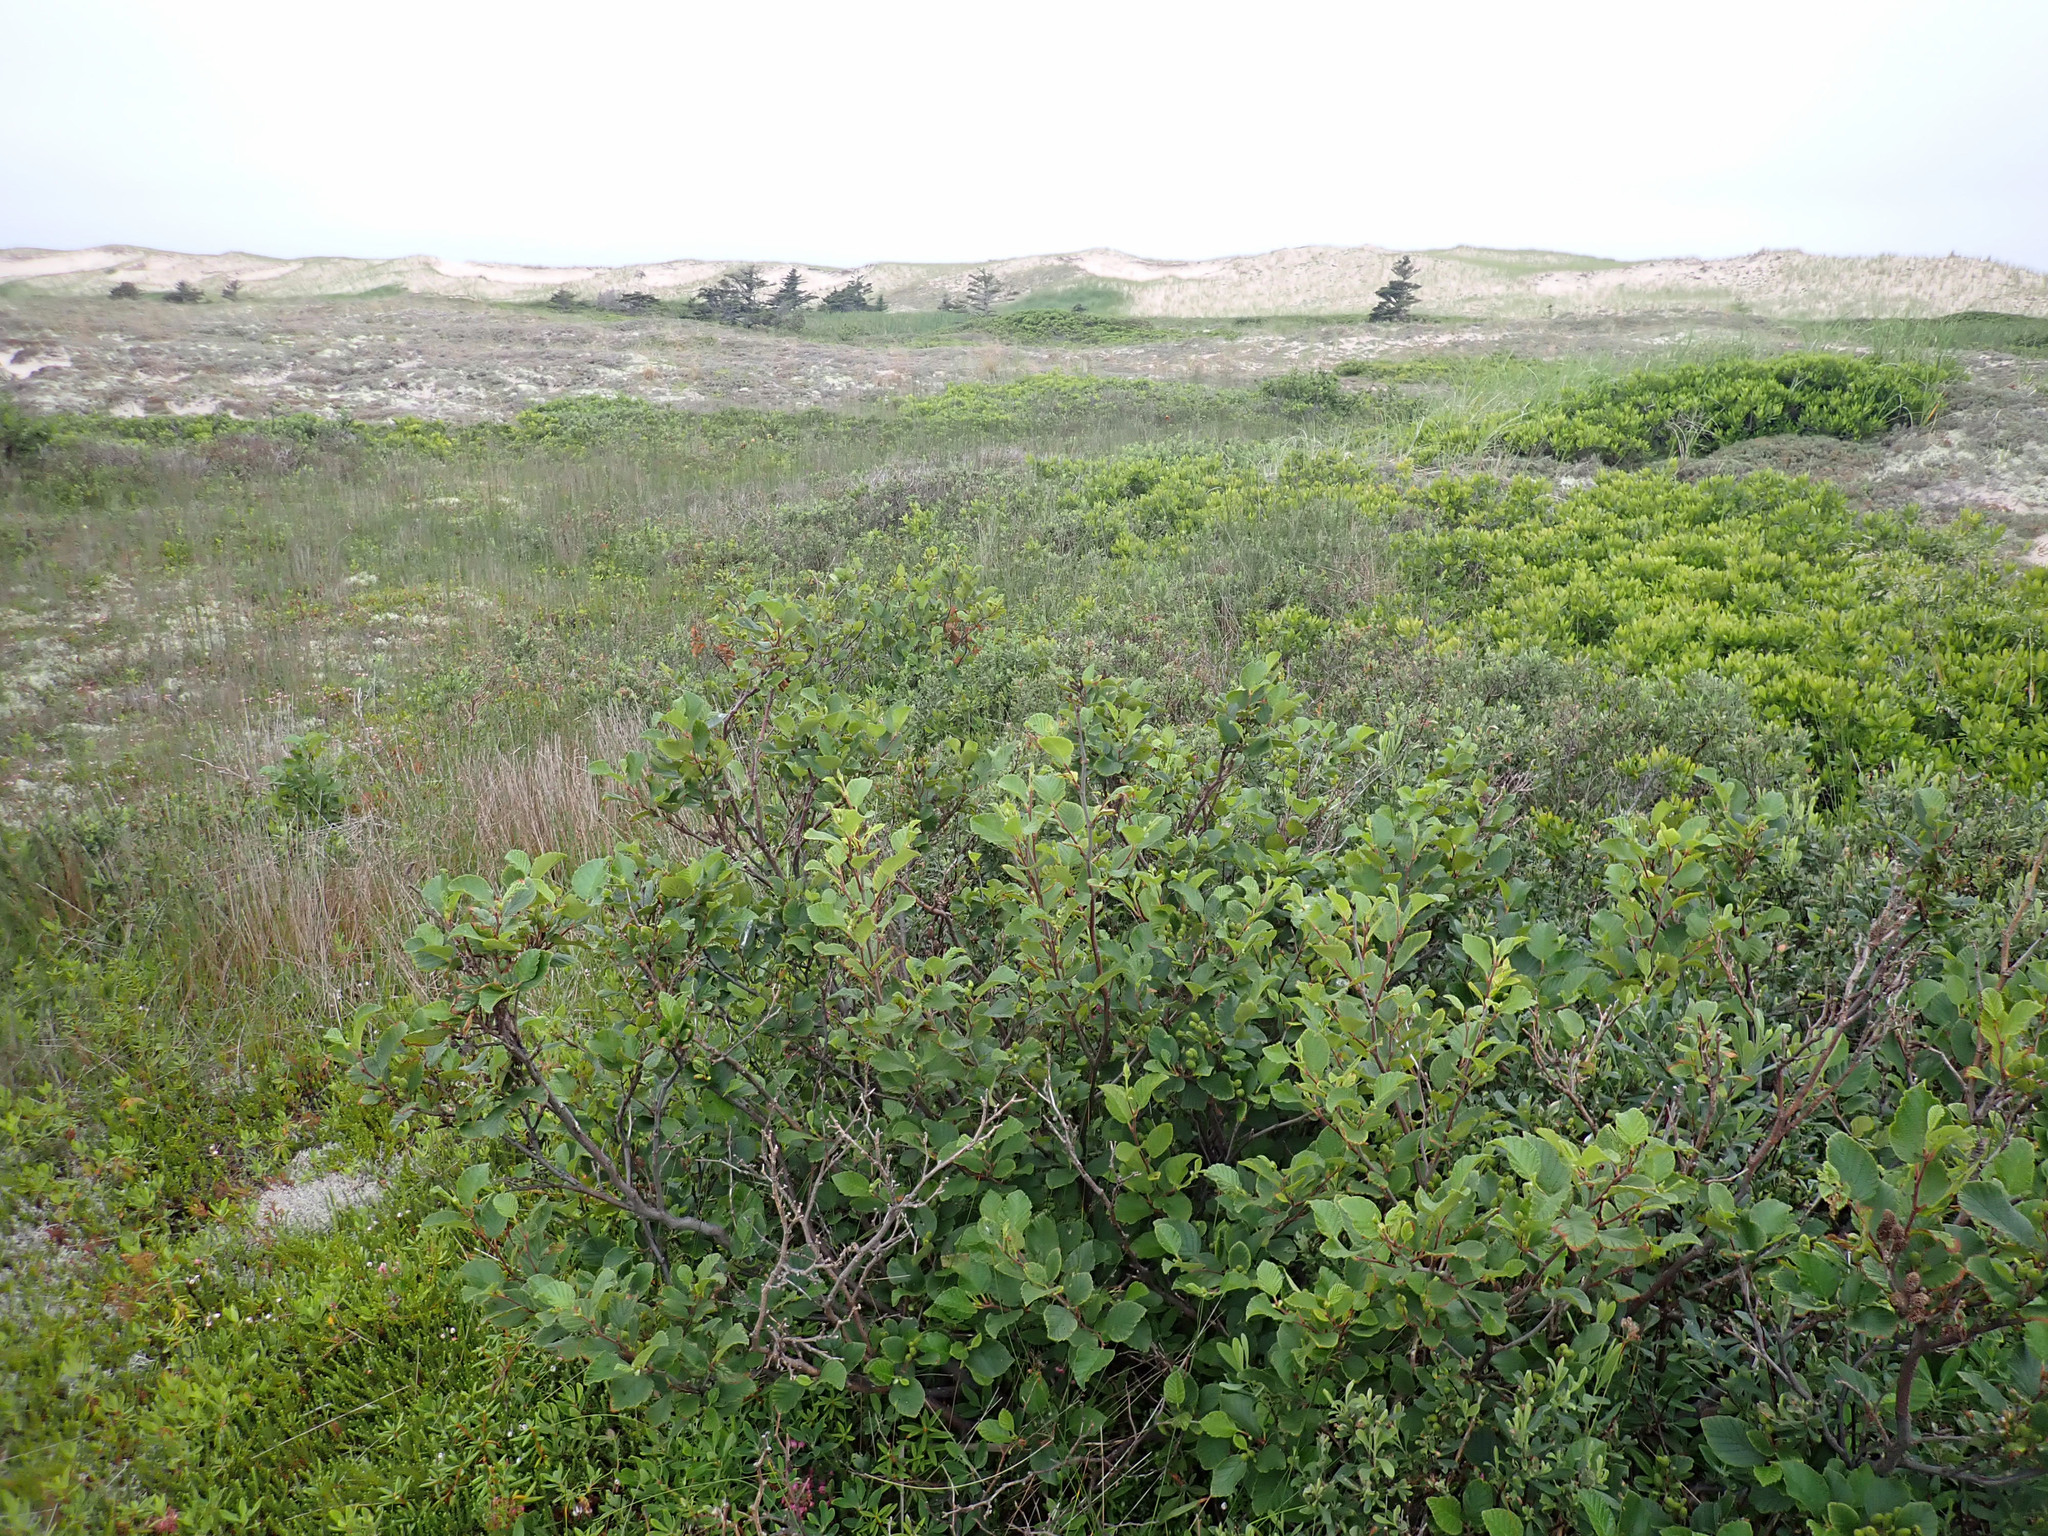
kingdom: Plantae
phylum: Tracheophyta
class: Magnoliopsida
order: Fagales
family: Betulaceae
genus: Alnus
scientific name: Alnus alnobetula
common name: Green alder
